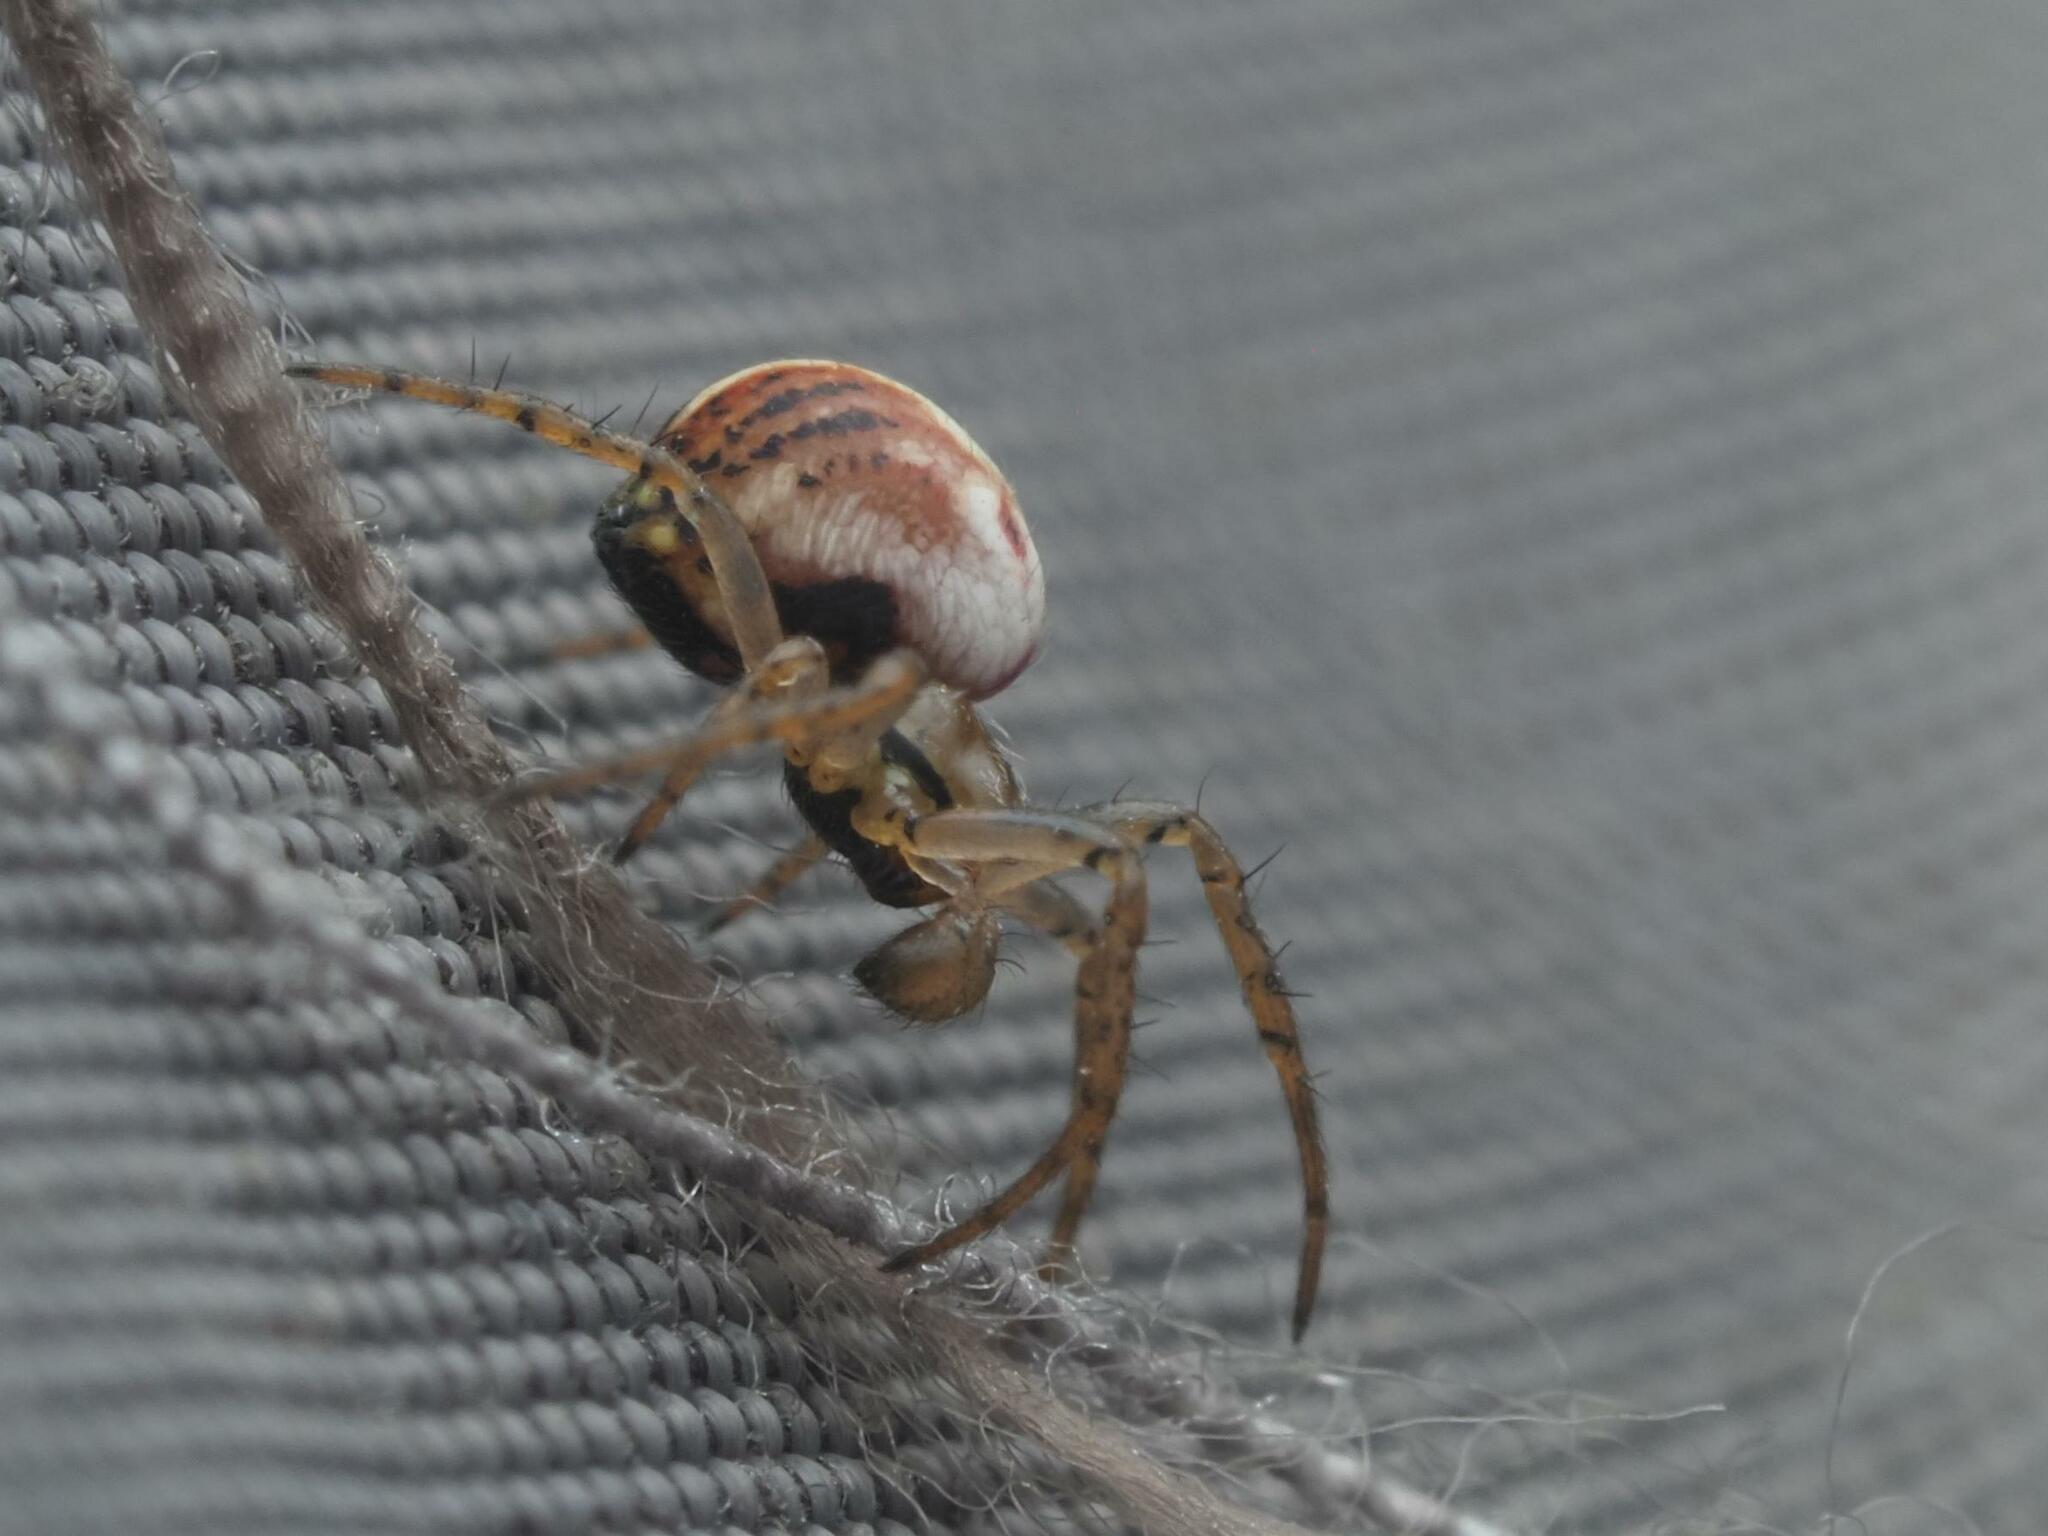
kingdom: Animalia
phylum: Arthropoda
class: Arachnida
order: Araneae
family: Araneidae
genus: Mangora
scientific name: Mangora acalypha
